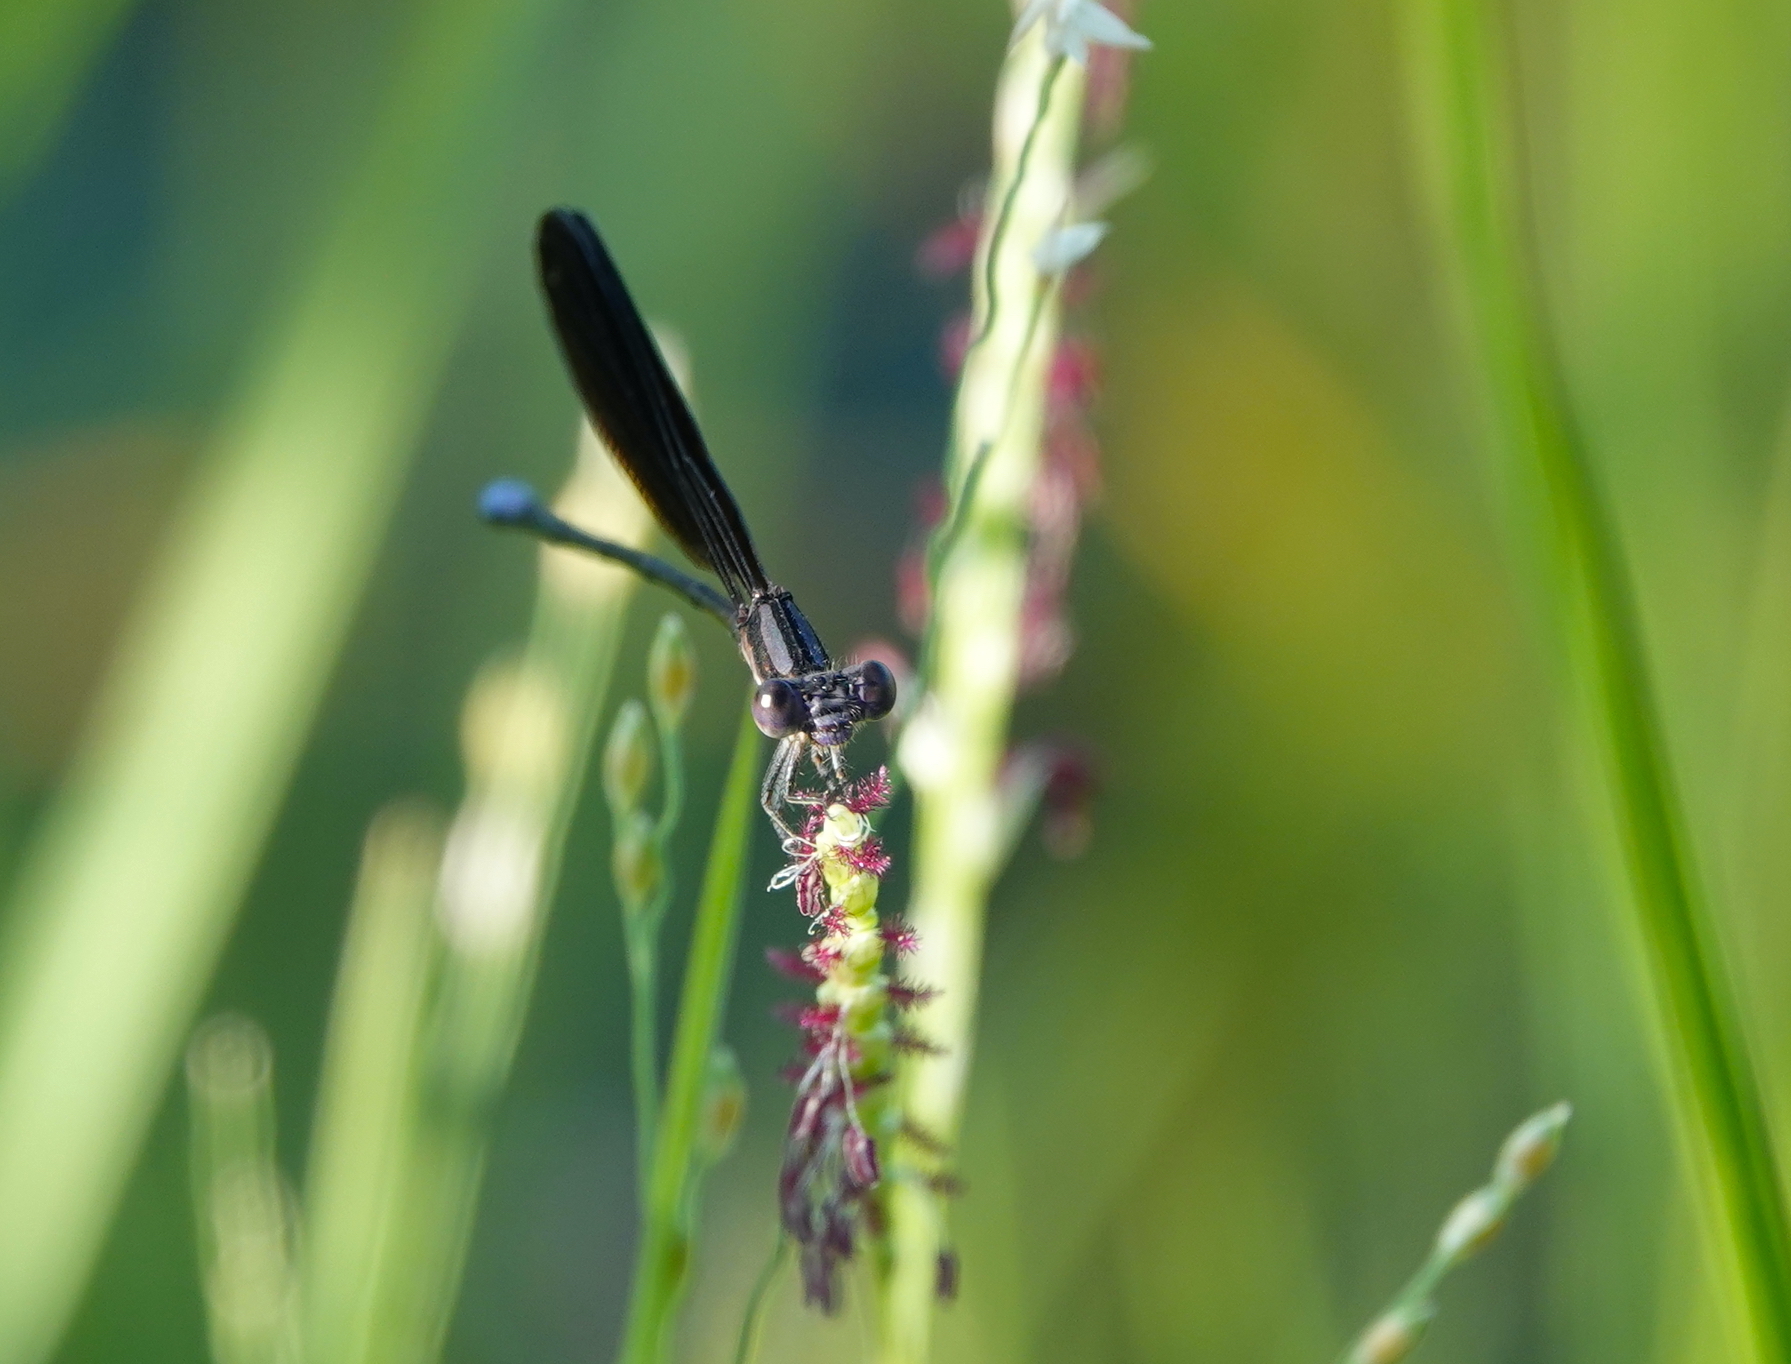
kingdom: Animalia
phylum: Arthropoda
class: Insecta
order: Odonata
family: Coenagrionidae
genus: Argia
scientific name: Argia fumipennis
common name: Variable dancer
